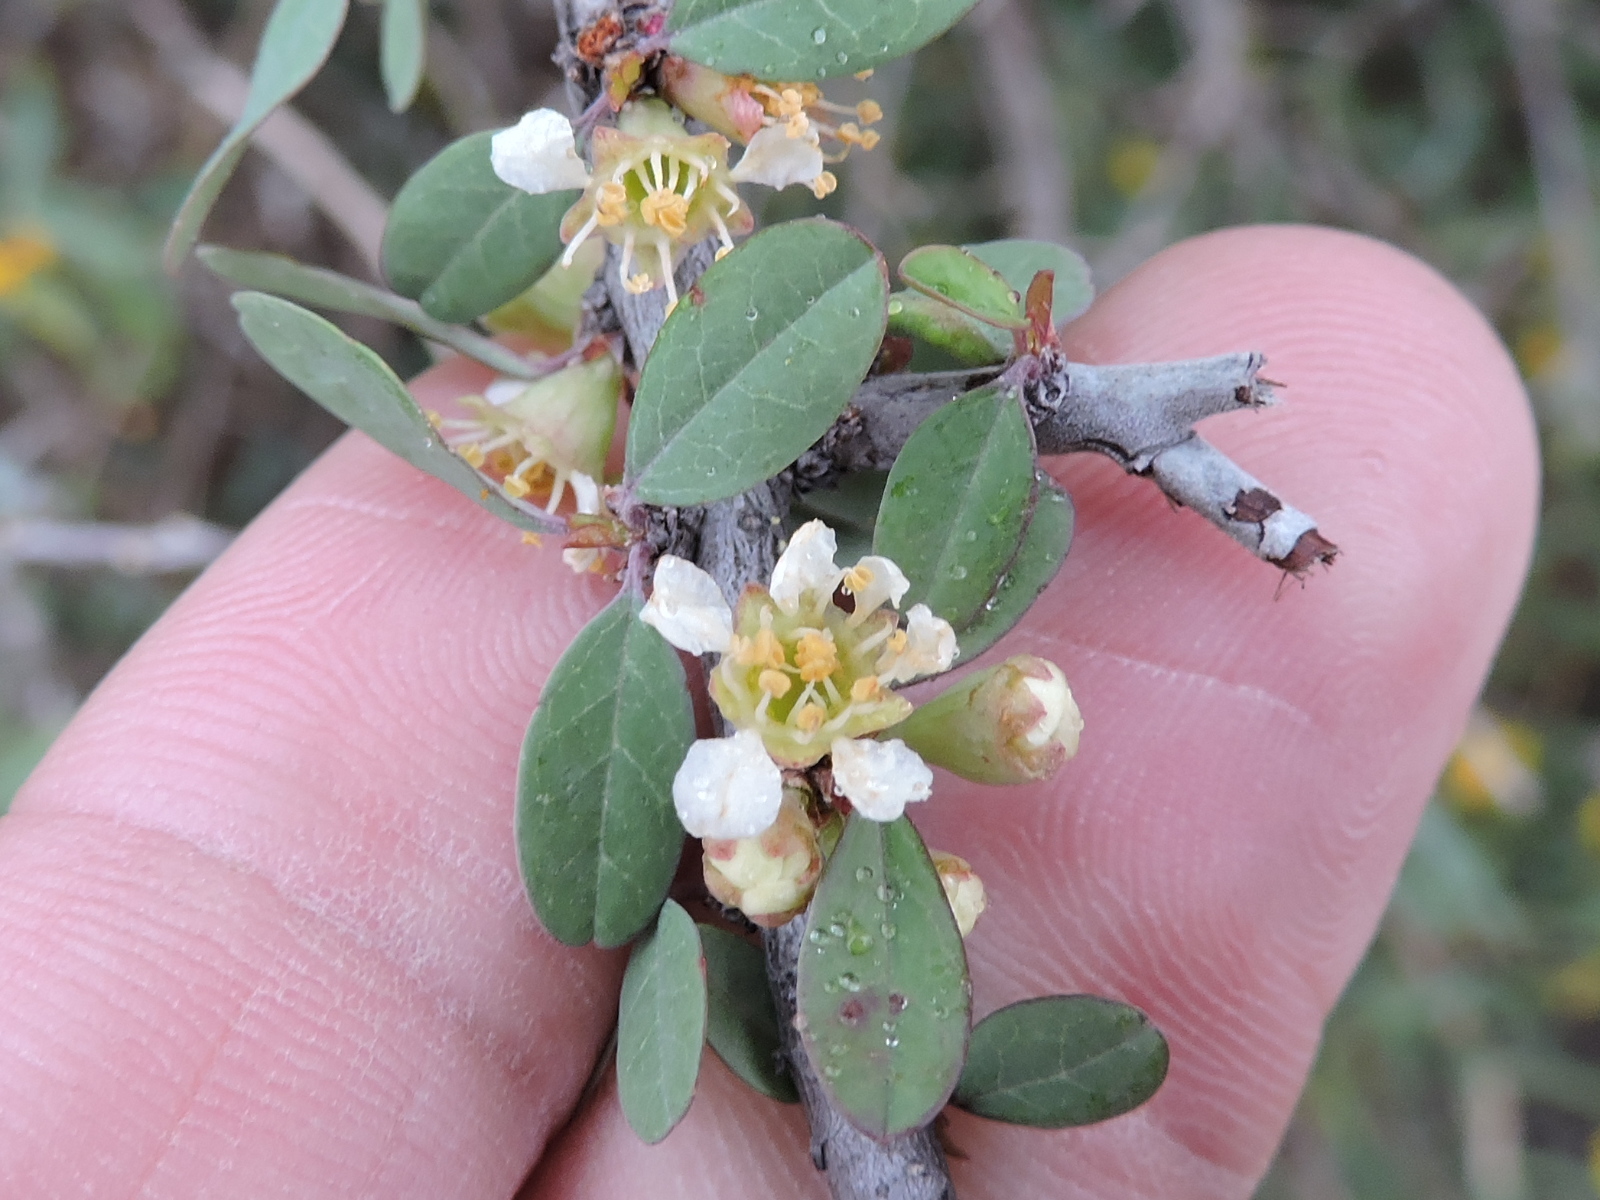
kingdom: Plantae
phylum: Tracheophyta
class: Magnoliopsida
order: Rosales
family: Rhamnaceae
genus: Condalia
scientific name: Condalia viridis
